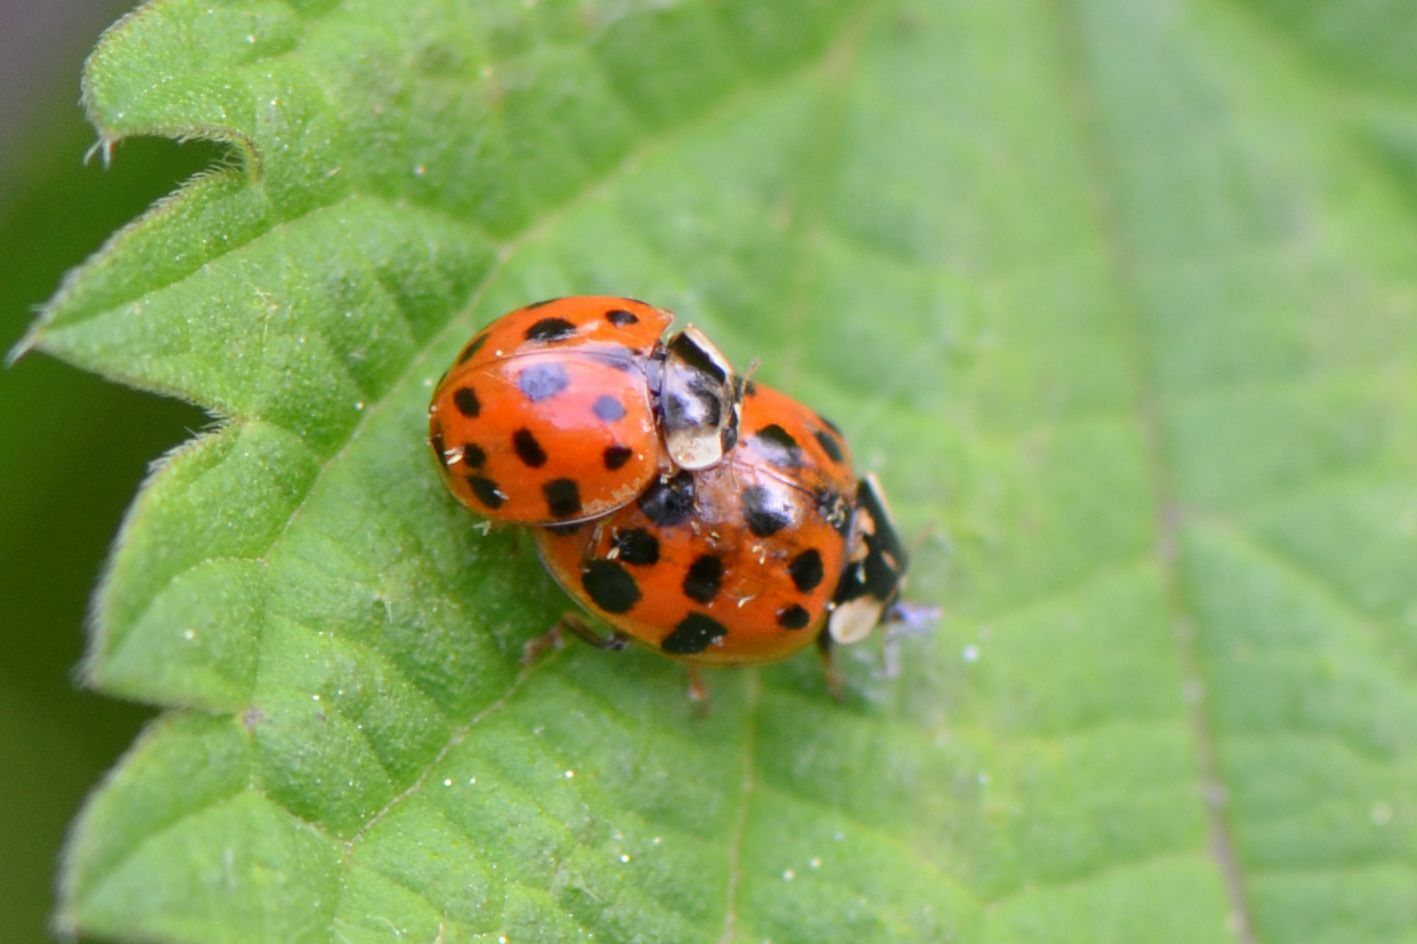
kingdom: Animalia
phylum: Arthropoda
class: Insecta
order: Coleoptera
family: Coccinellidae
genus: Harmonia
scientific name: Harmonia axyridis
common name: Harlequin ladybird
